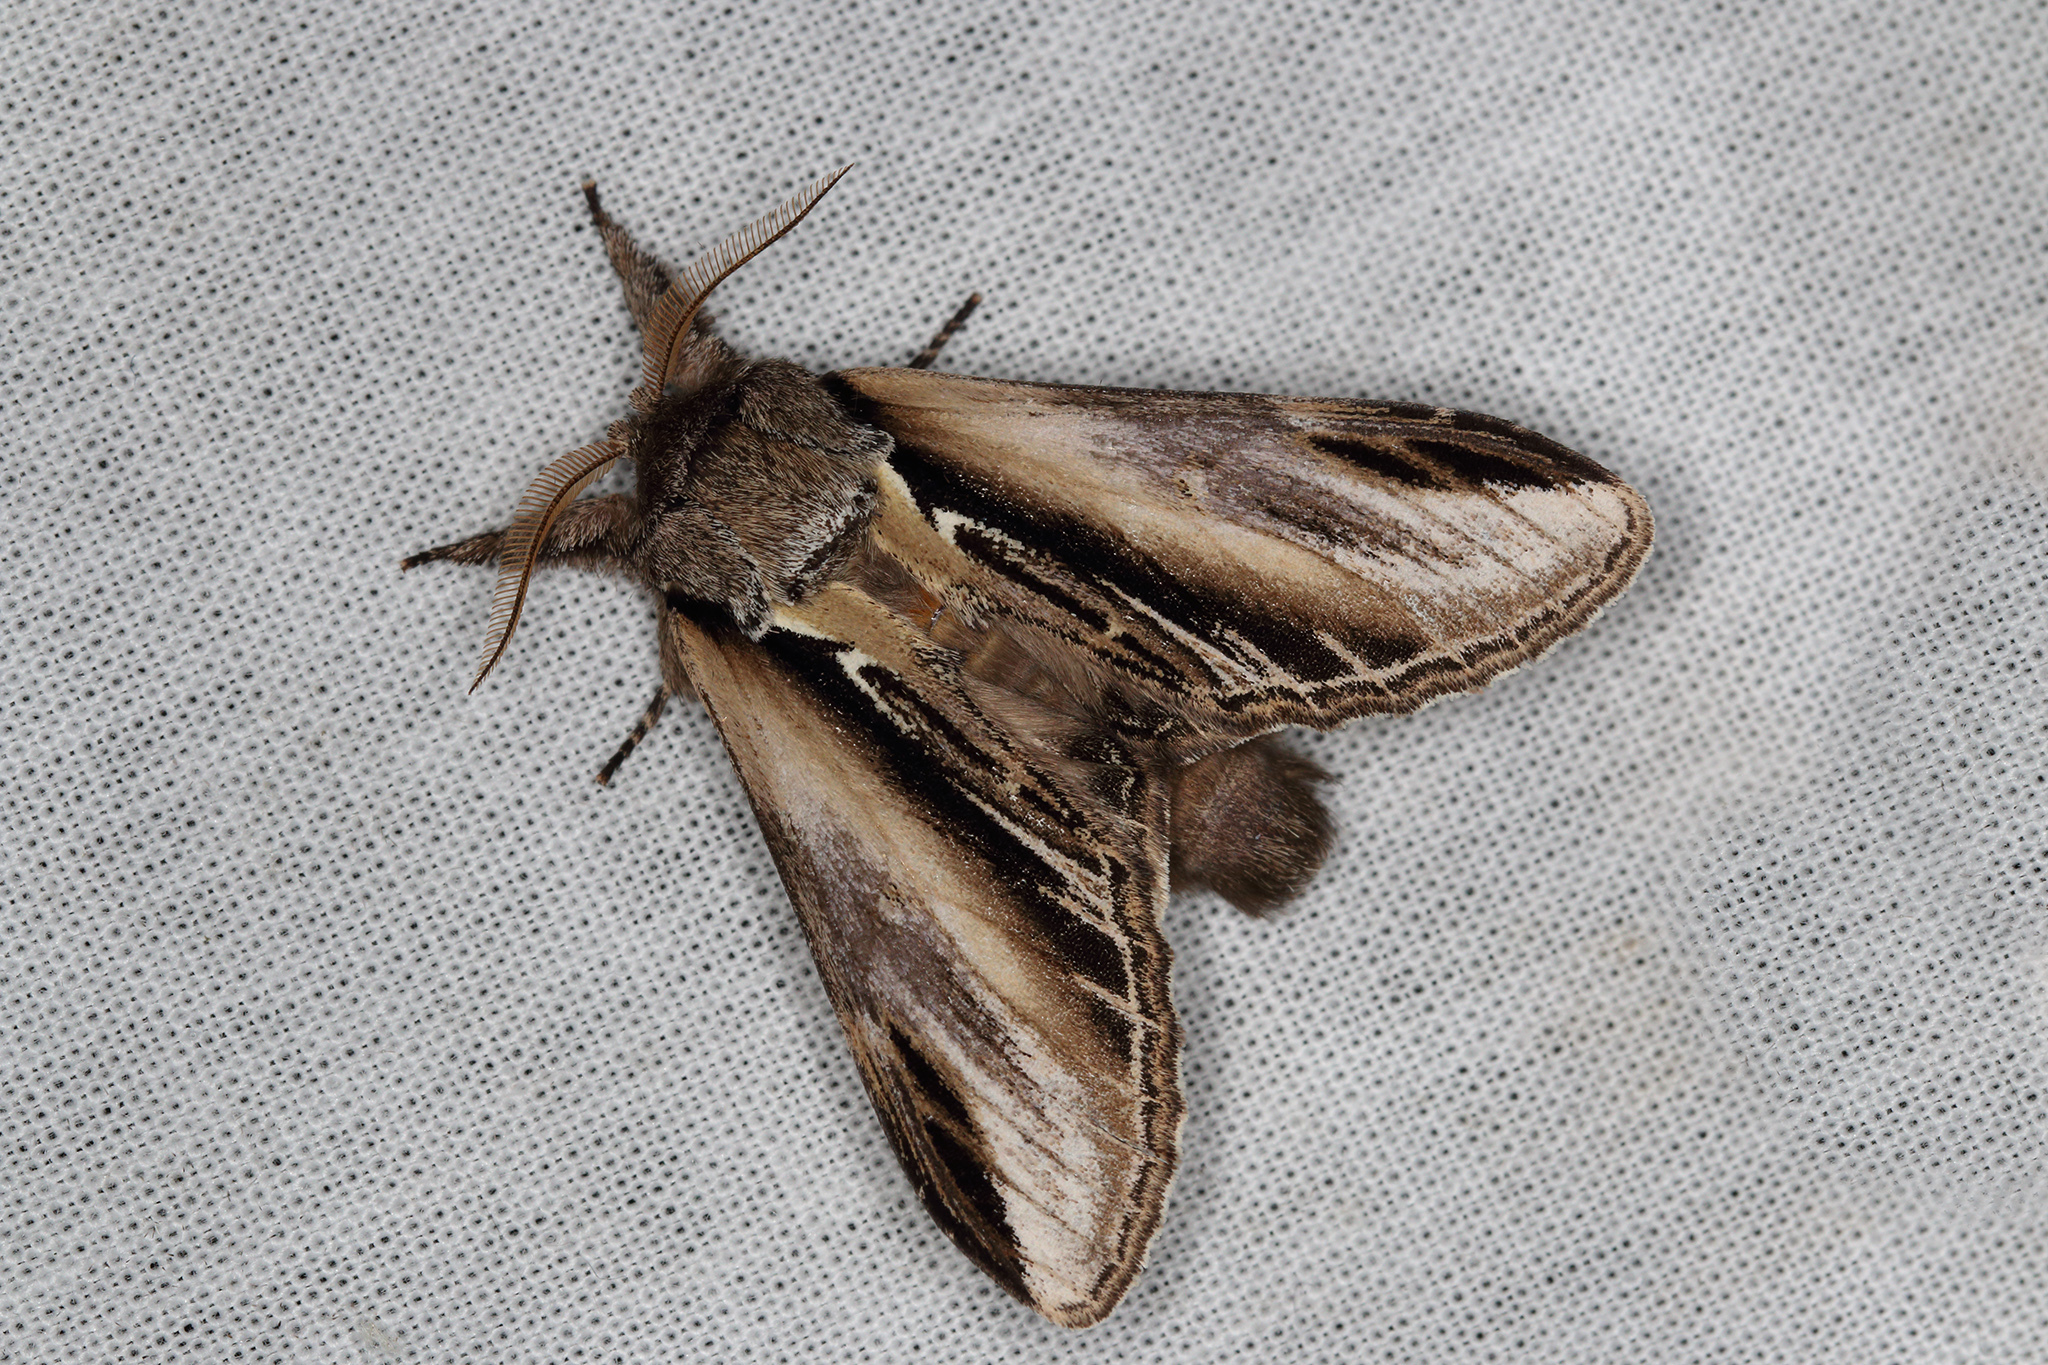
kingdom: Animalia
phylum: Arthropoda
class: Insecta
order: Lepidoptera
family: Notodontidae
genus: Pheosia
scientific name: Pheosia tremula
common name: Swallow prominent
